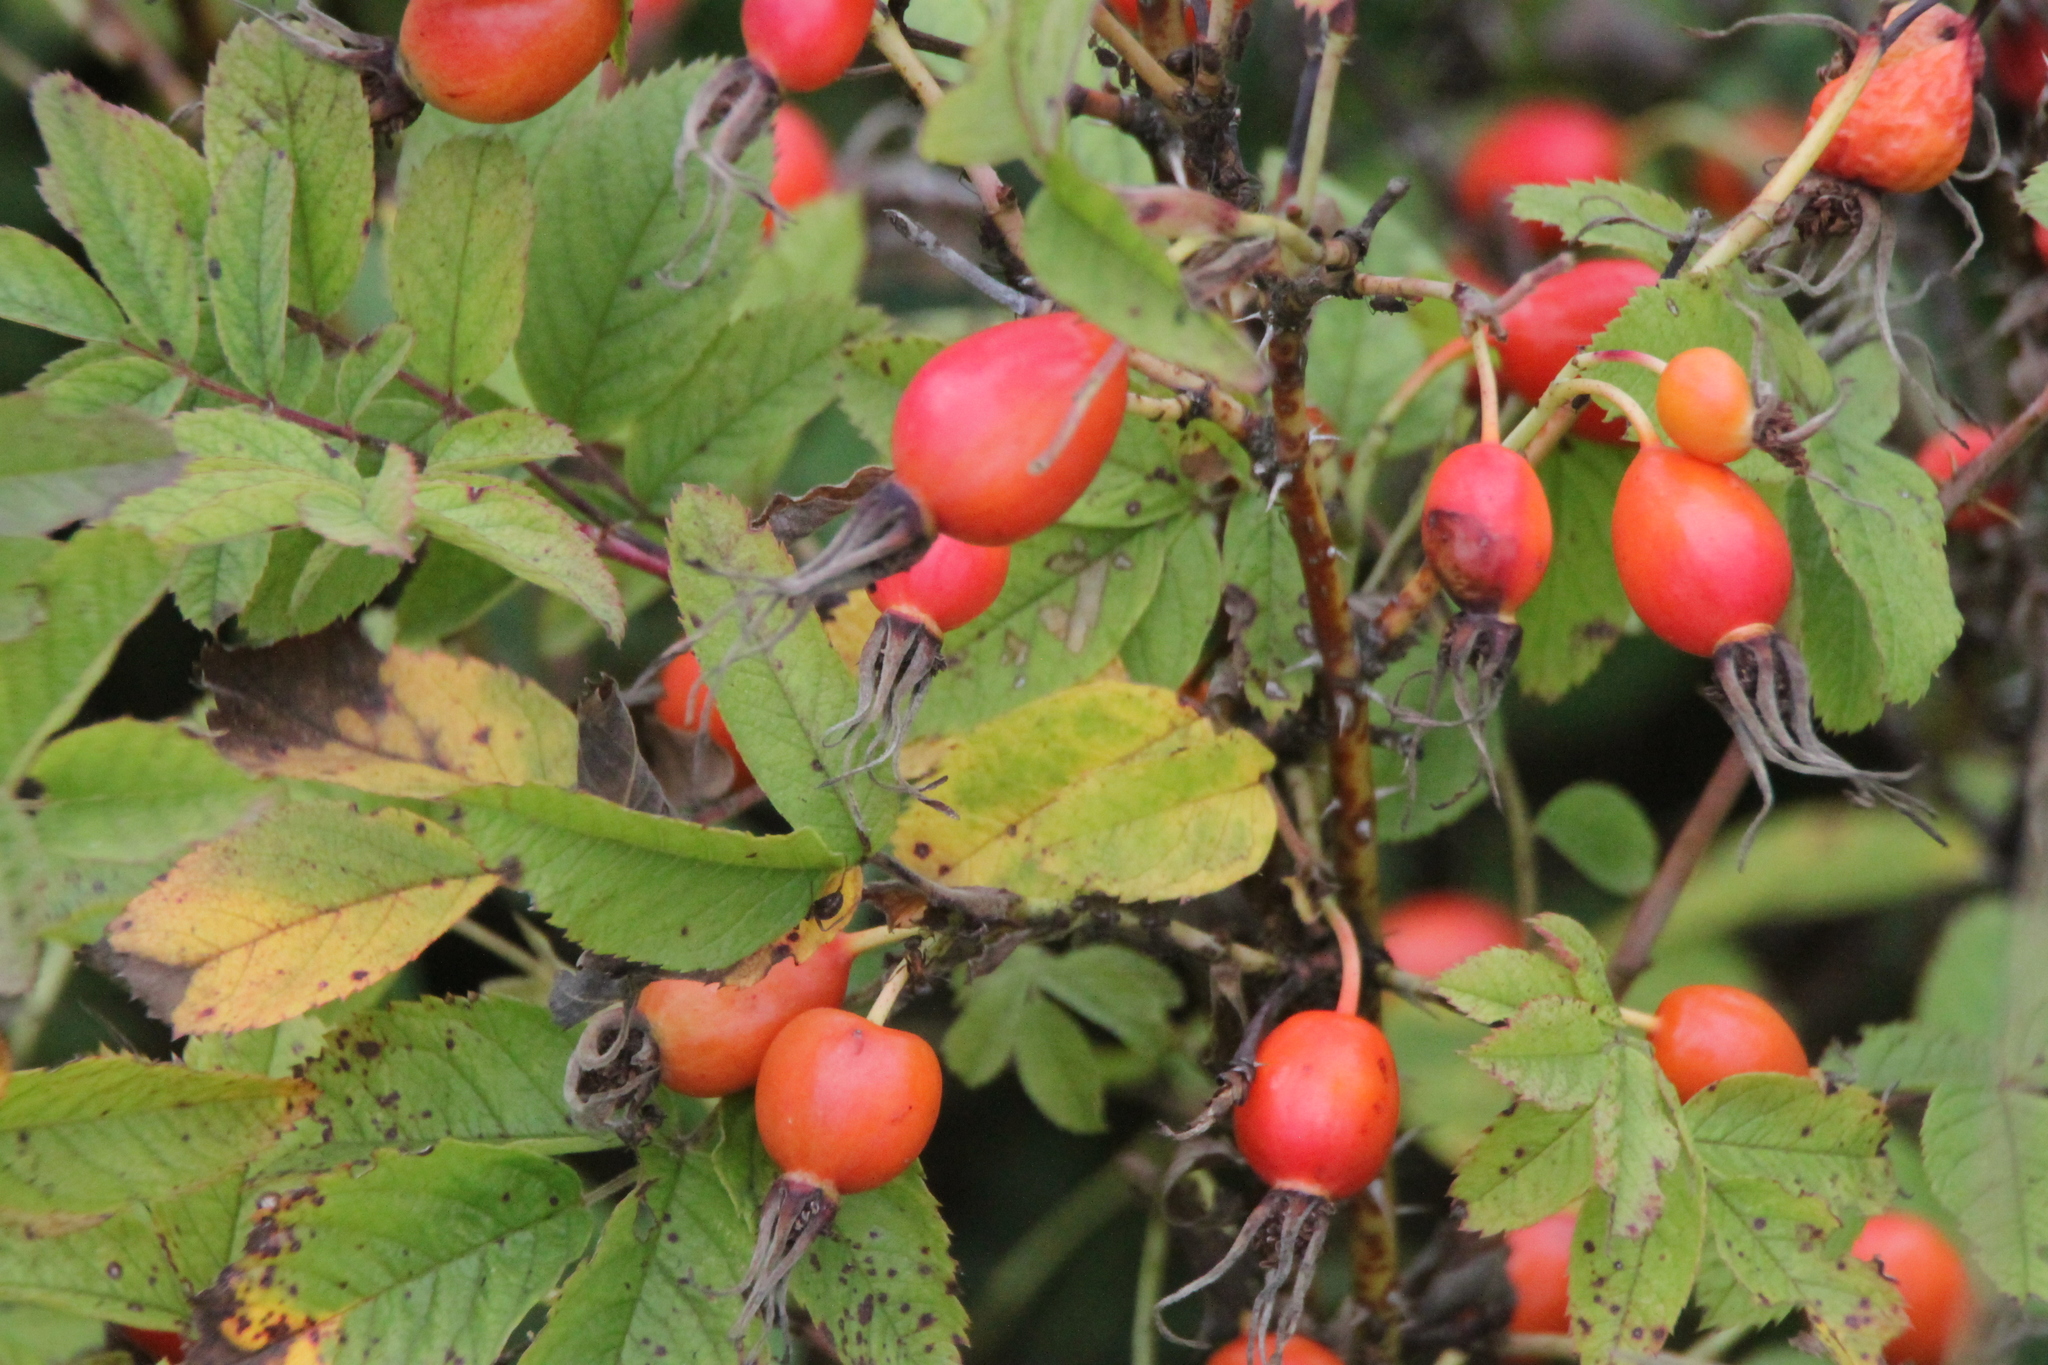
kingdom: Plantae
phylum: Tracheophyta
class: Magnoliopsida
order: Rosales
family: Rosaceae
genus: Rosa
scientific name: Rosa majalis
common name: Cinnamon rose
